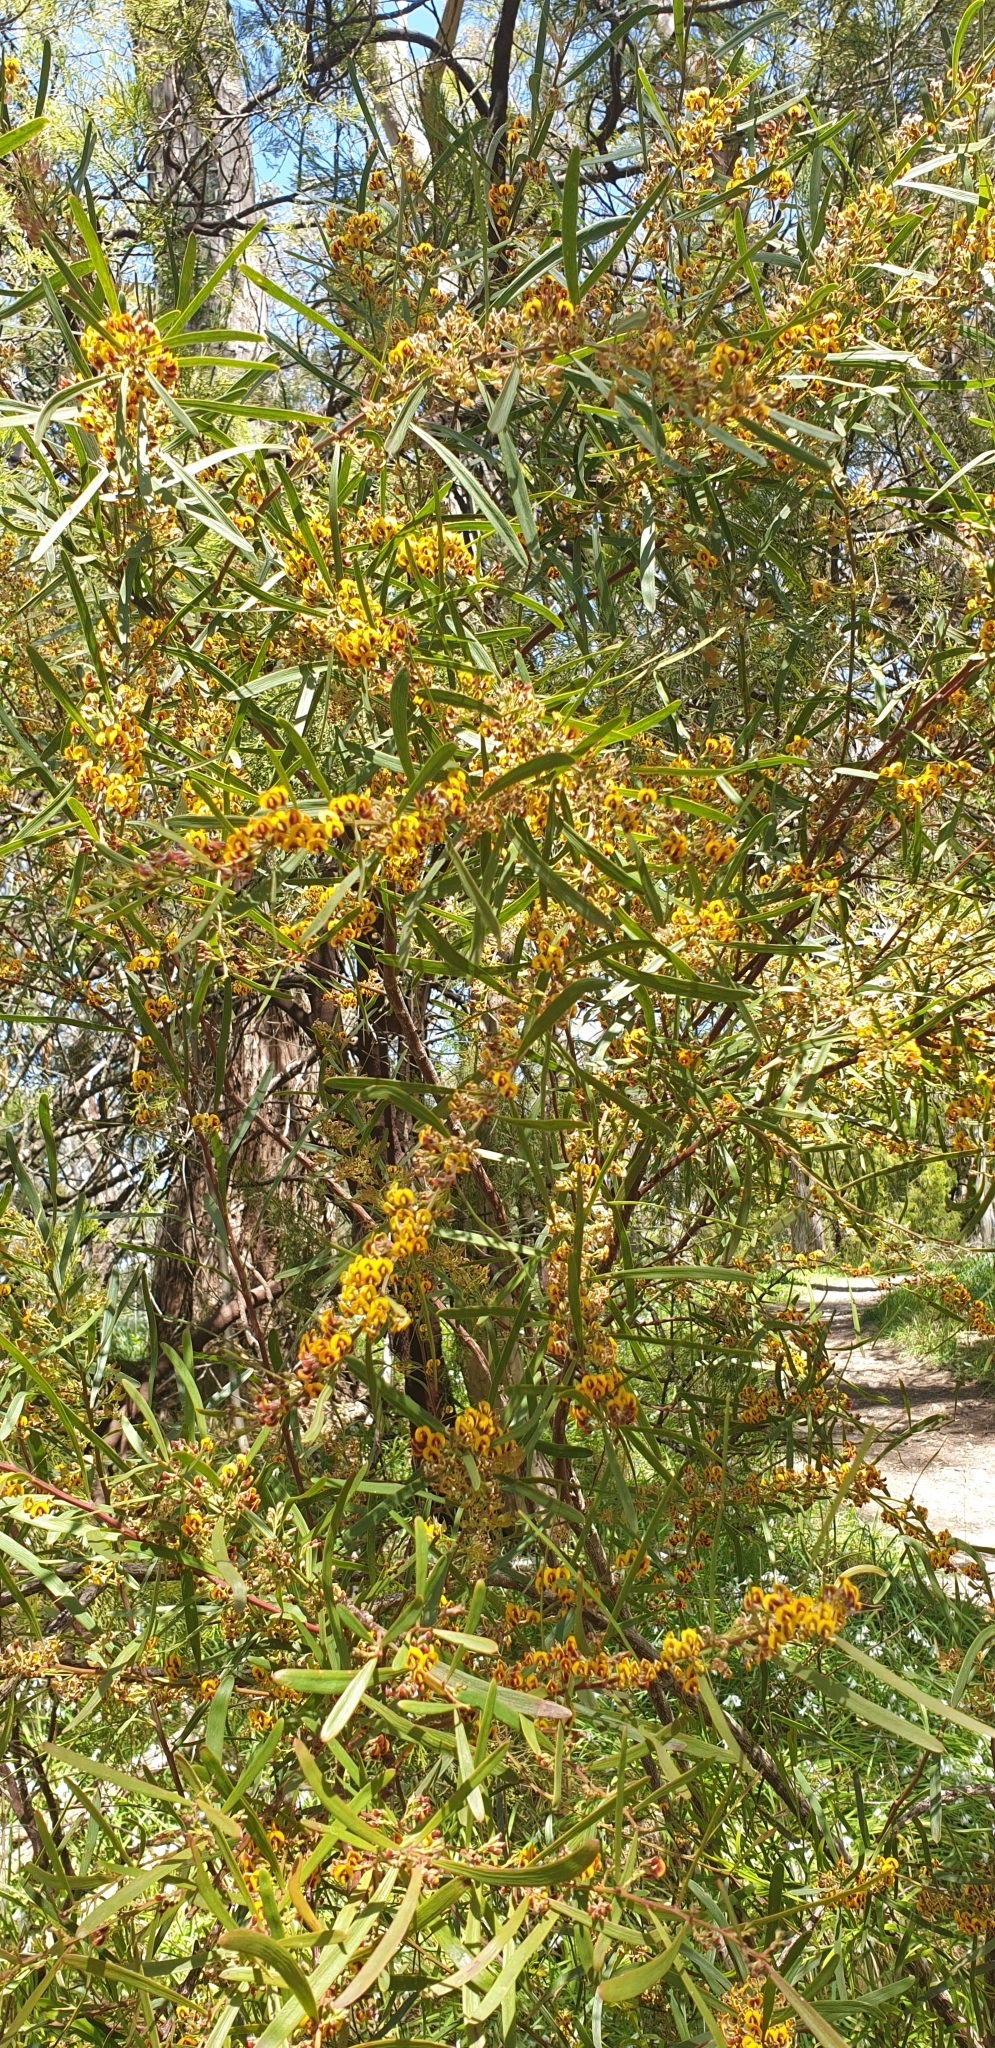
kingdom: Plantae
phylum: Tracheophyta
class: Magnoliopsida
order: Fabales
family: Fabaceae
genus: Daviesia
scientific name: Daviesia leptophylla
